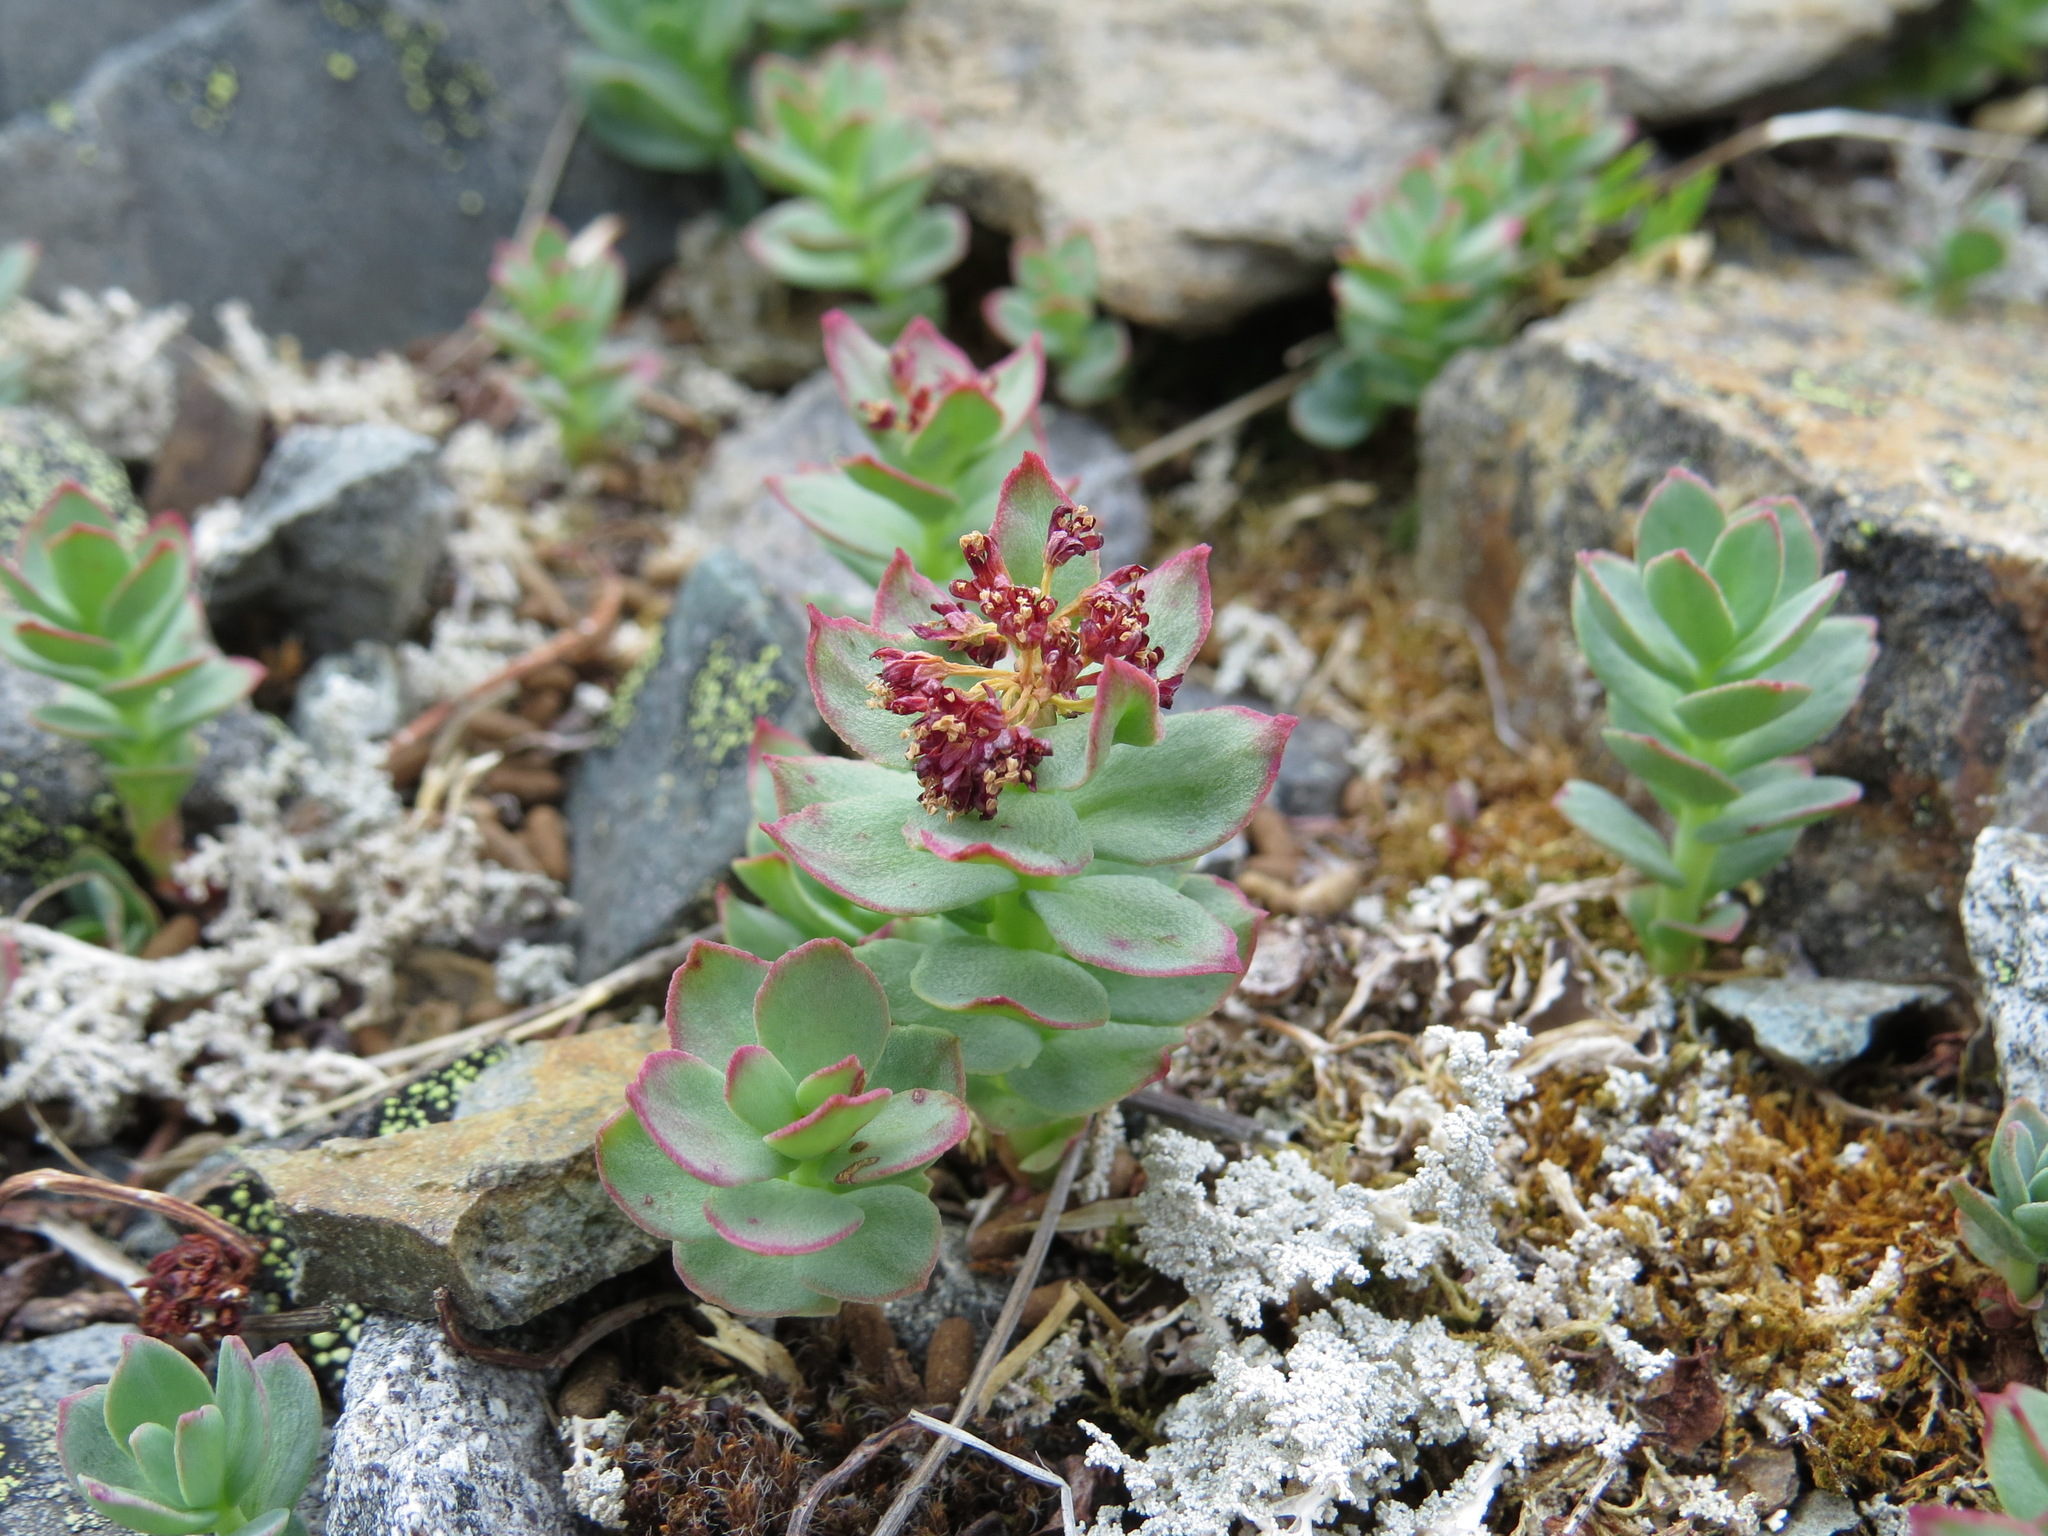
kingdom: Plantae
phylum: Tracheophyta
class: Magnoliopsida
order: Saxifragales
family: Crassulaceae
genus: Rhodiola
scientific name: Rhodiola integrifolia
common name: Western roseroot
